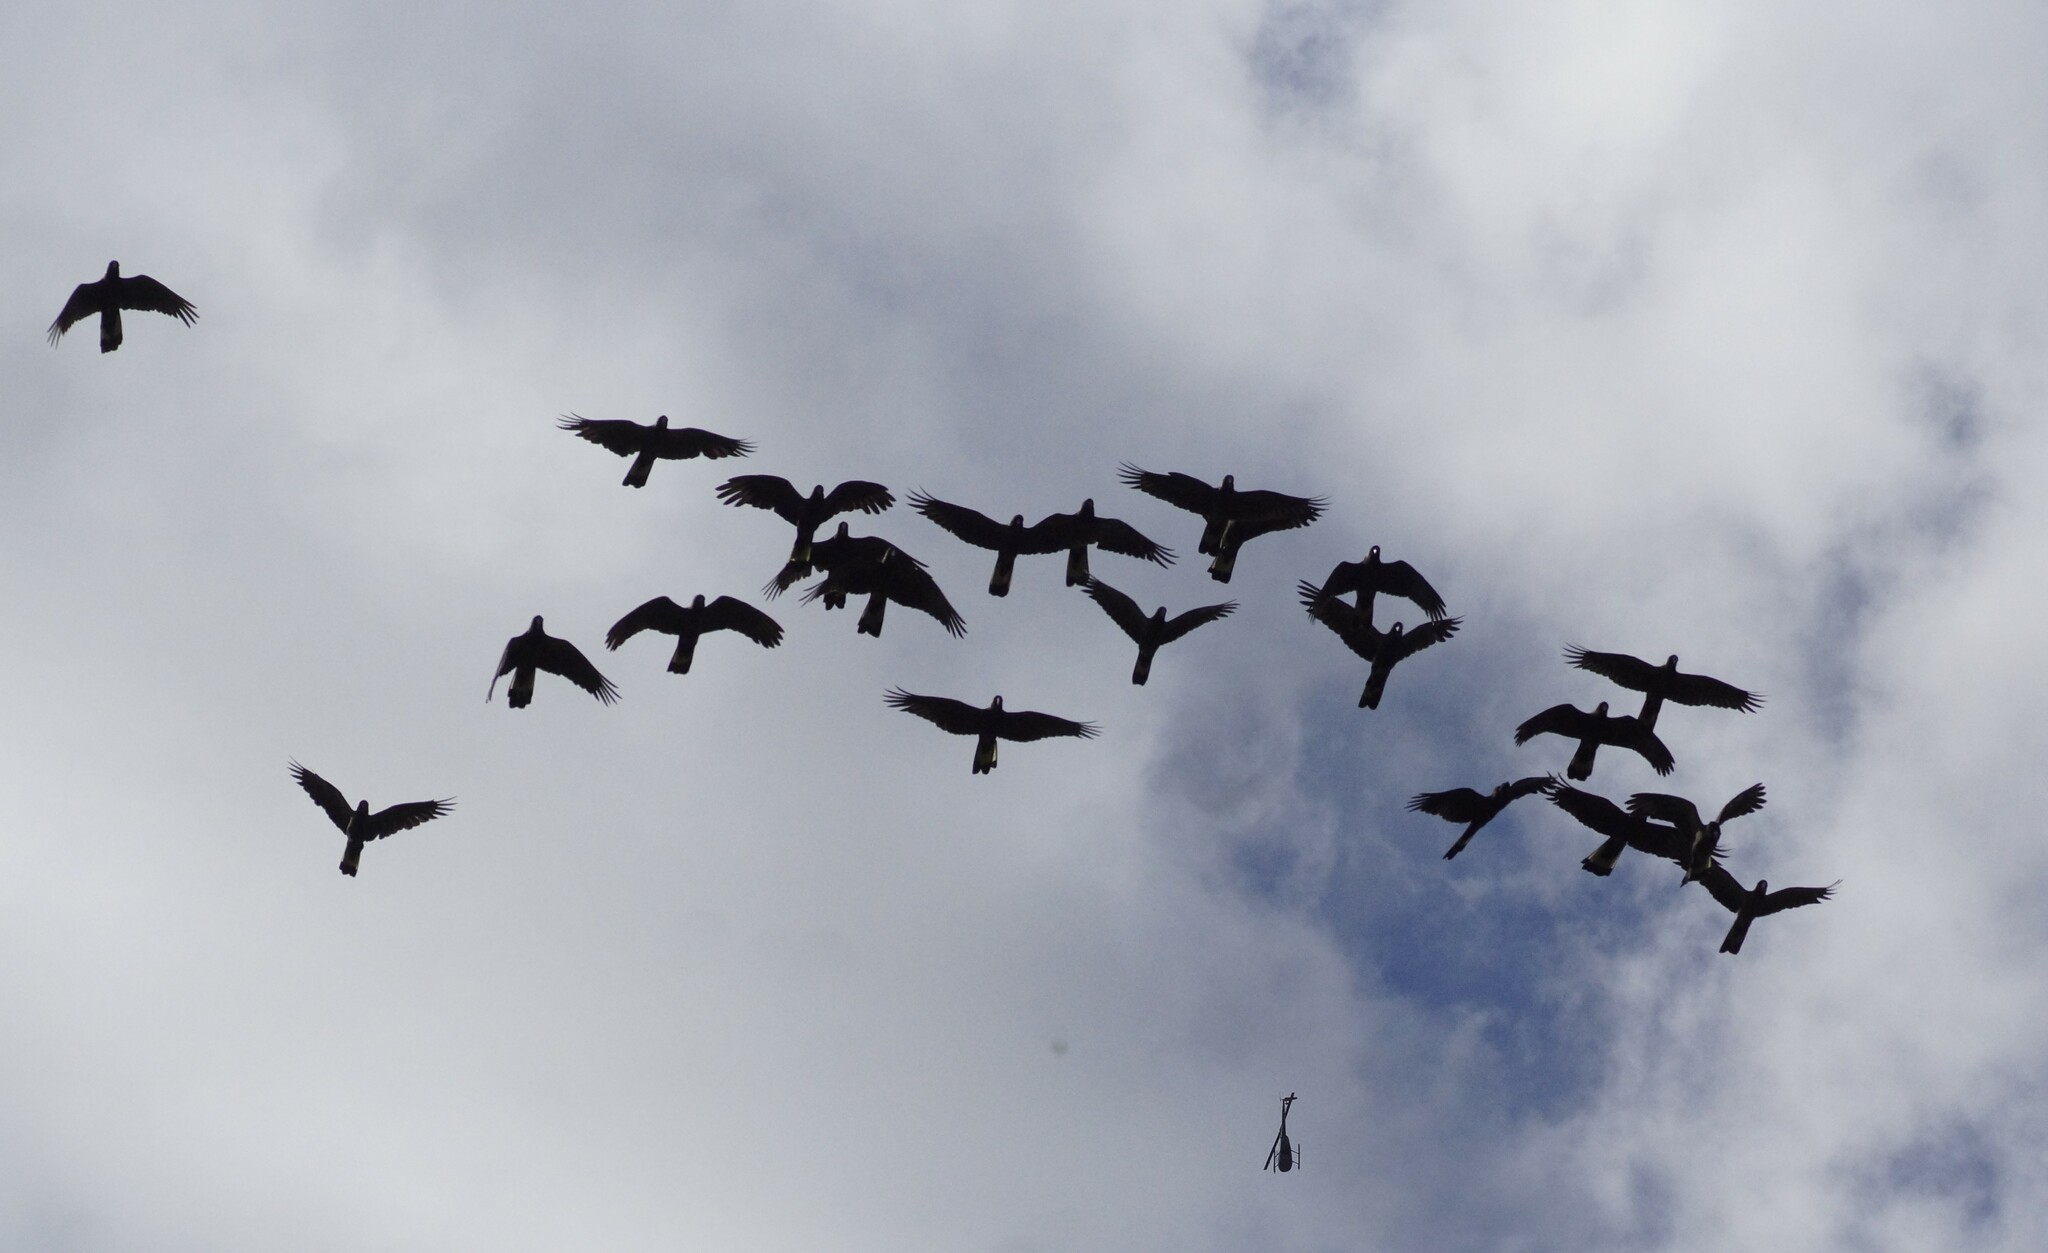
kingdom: Animalia
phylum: Chordata
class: Aves
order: Psittaciformes
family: Cacatuidae
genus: Zanda
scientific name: Zanda funerea
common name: Yellow-tailed black-cockatoo
